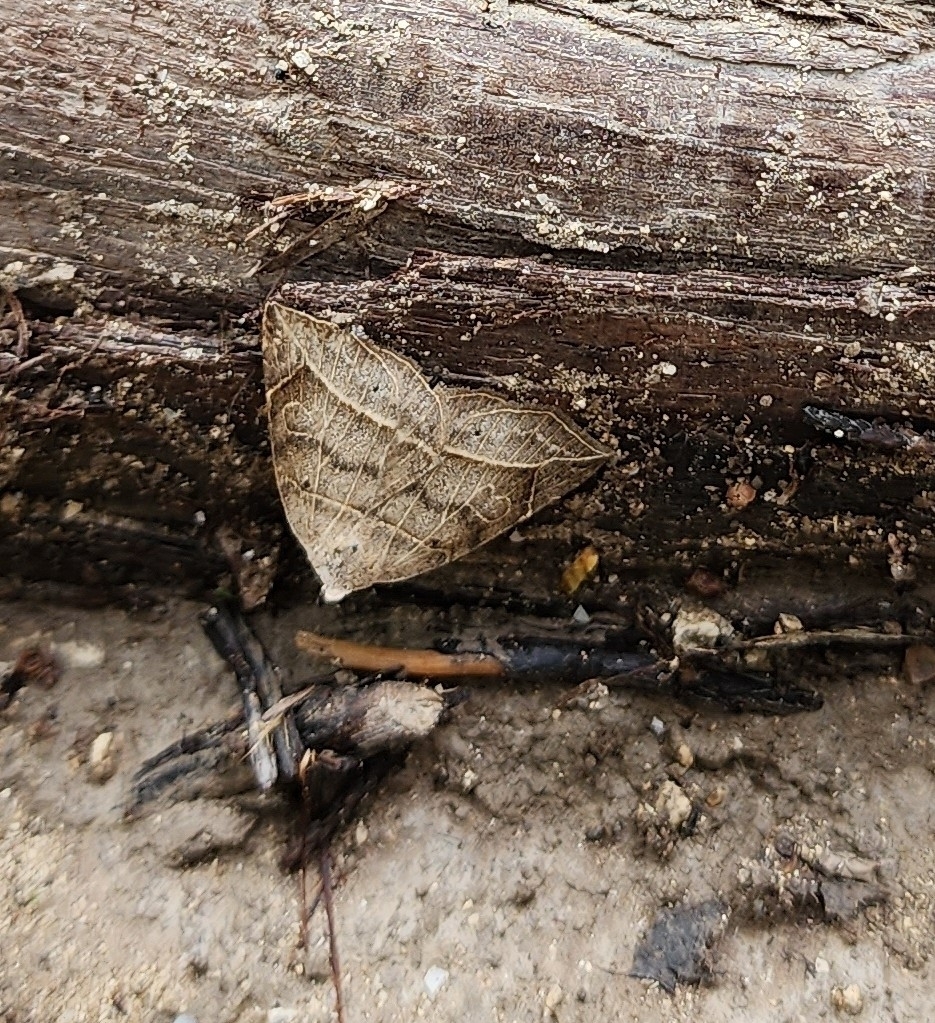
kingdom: Animalia
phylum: Arthropoda
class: Insecta
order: Lepidoptera
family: Erebidae
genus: Isogona
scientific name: Isogona tenuis
